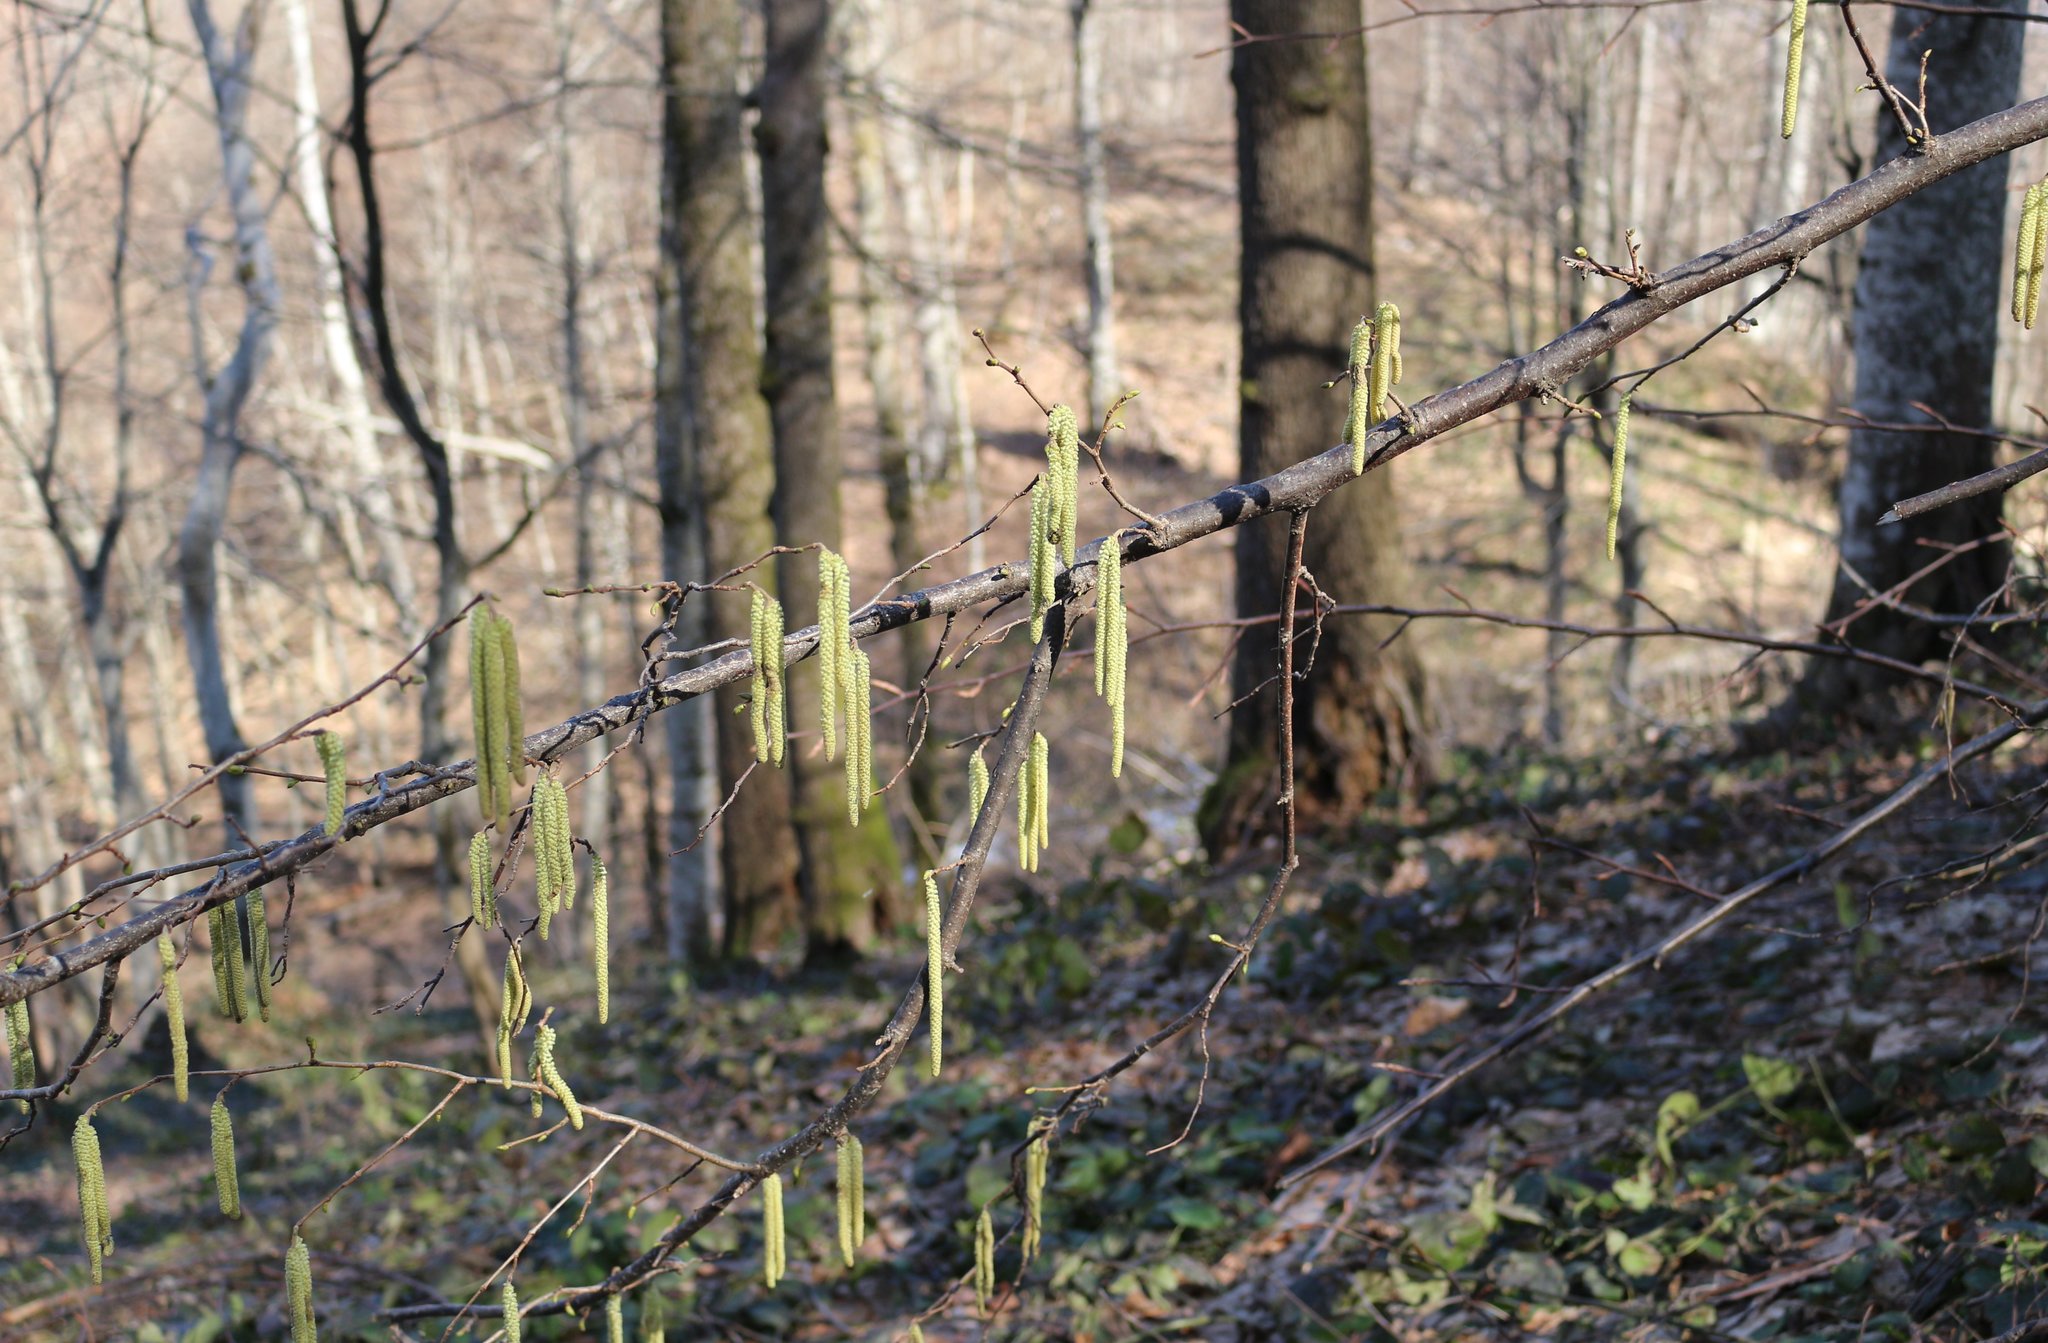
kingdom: Plantae
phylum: Tracheophyta
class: Magnoliopsida
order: Fagales
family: Betulaceae
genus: Corylus
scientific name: Corylus avellana
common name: European hazel
